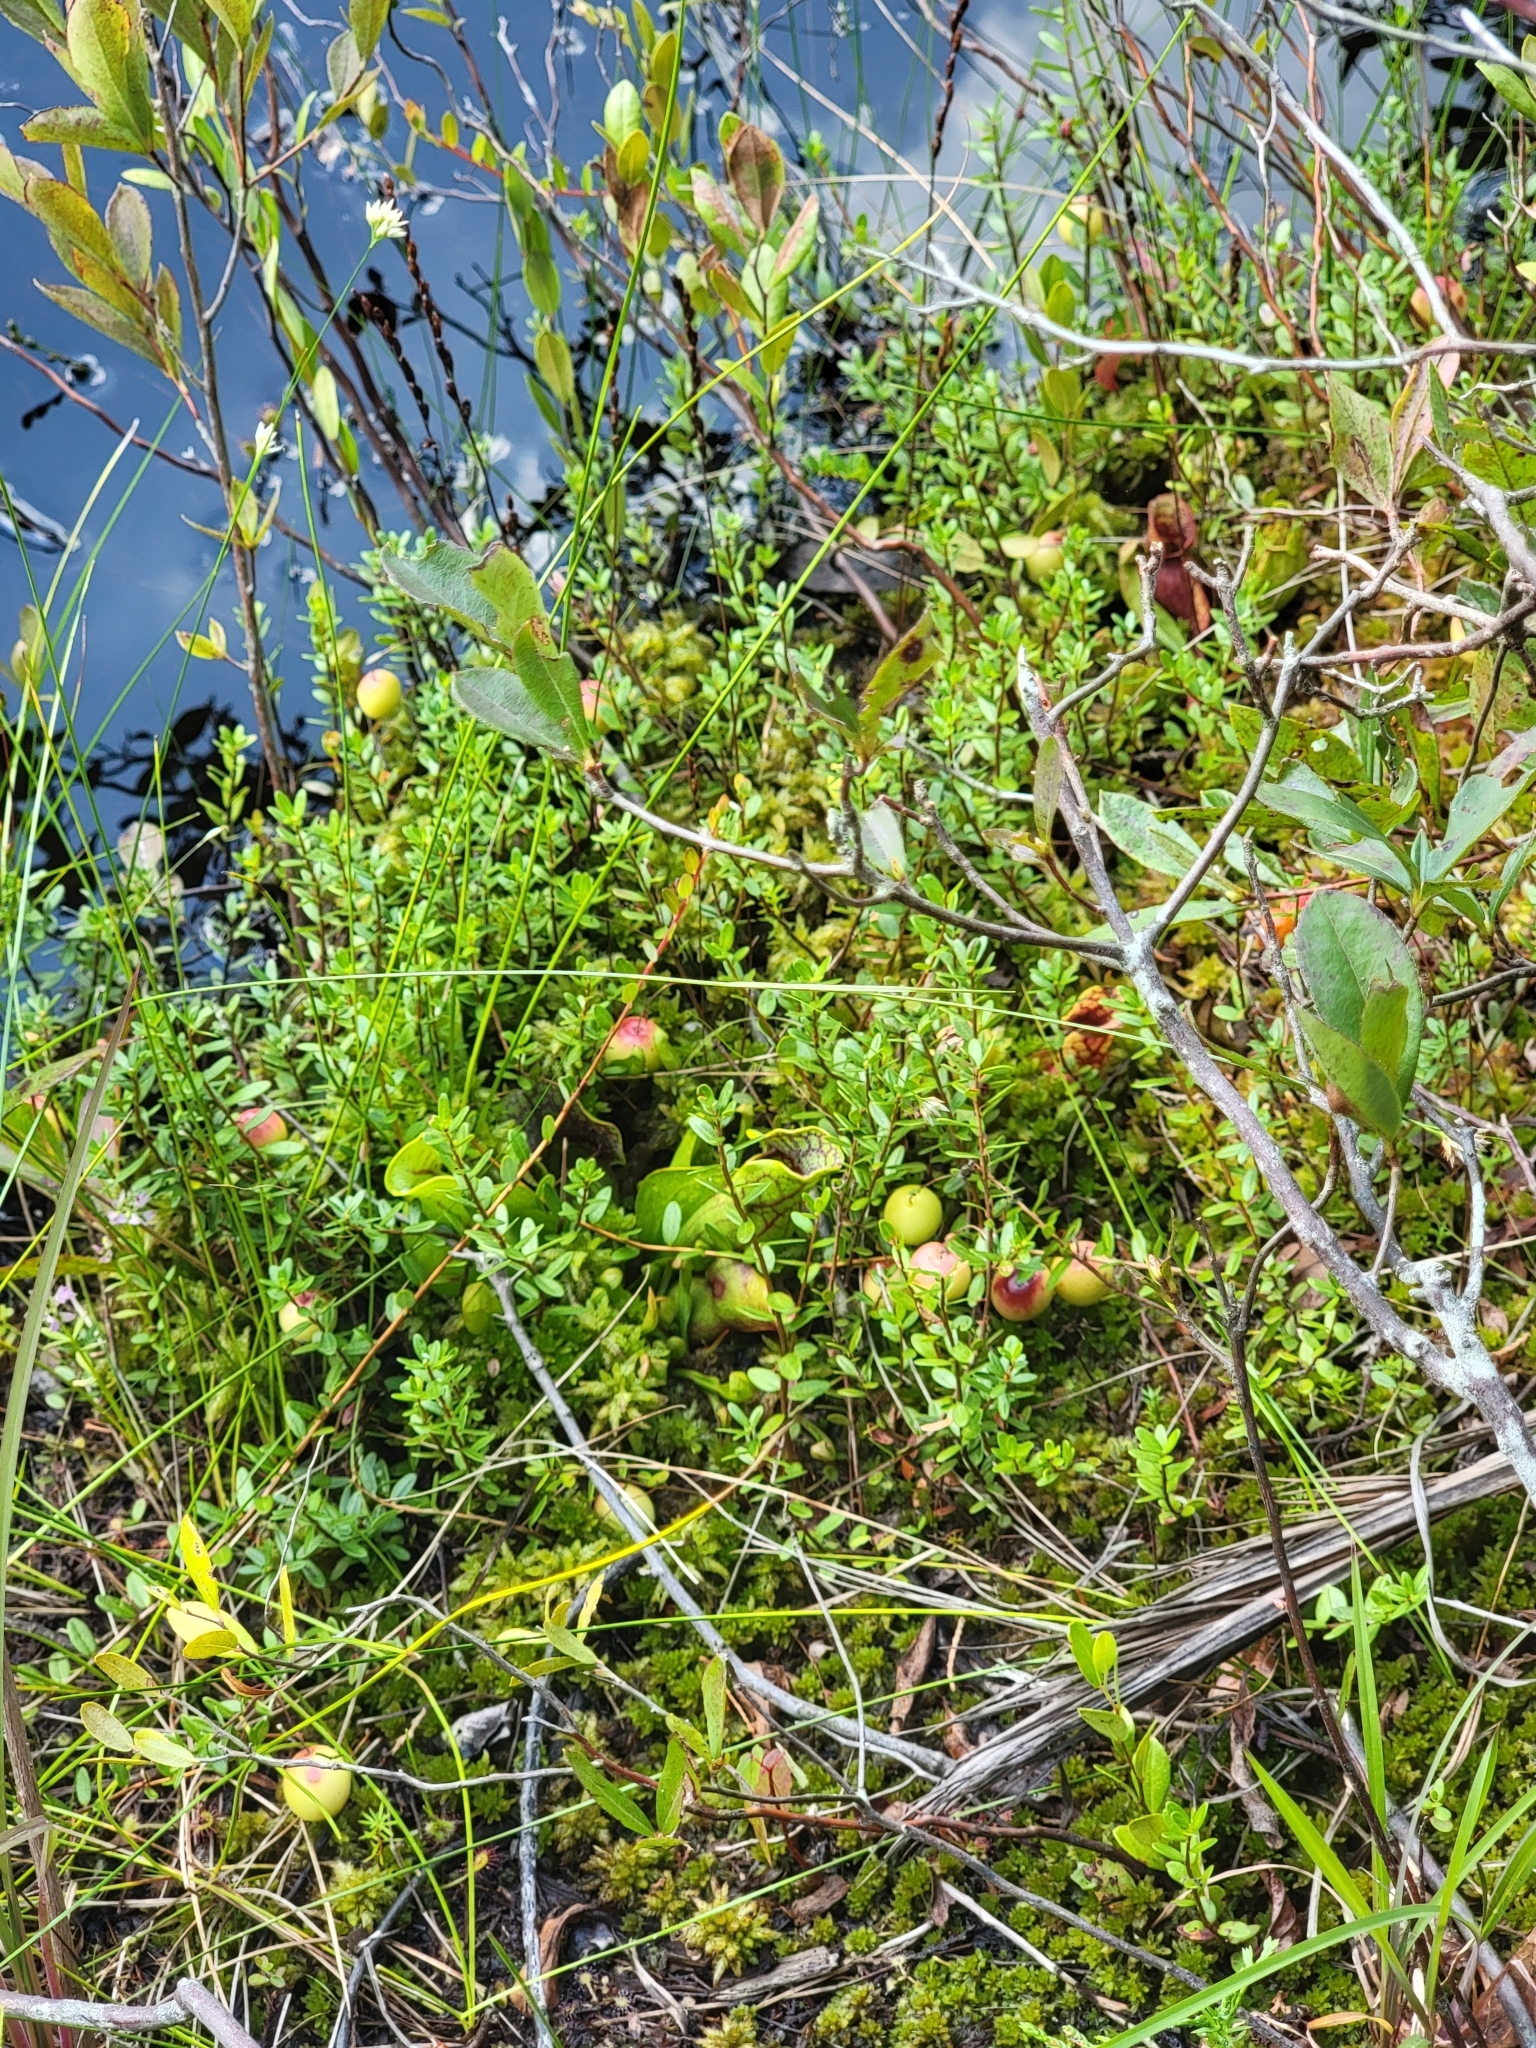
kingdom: Plantae
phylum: Tracheophyta
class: Magnoliopsida
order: Ericales
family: Ericaceae
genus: Vaccinium
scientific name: Vaccinium macrocarpon
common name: American cranberry
